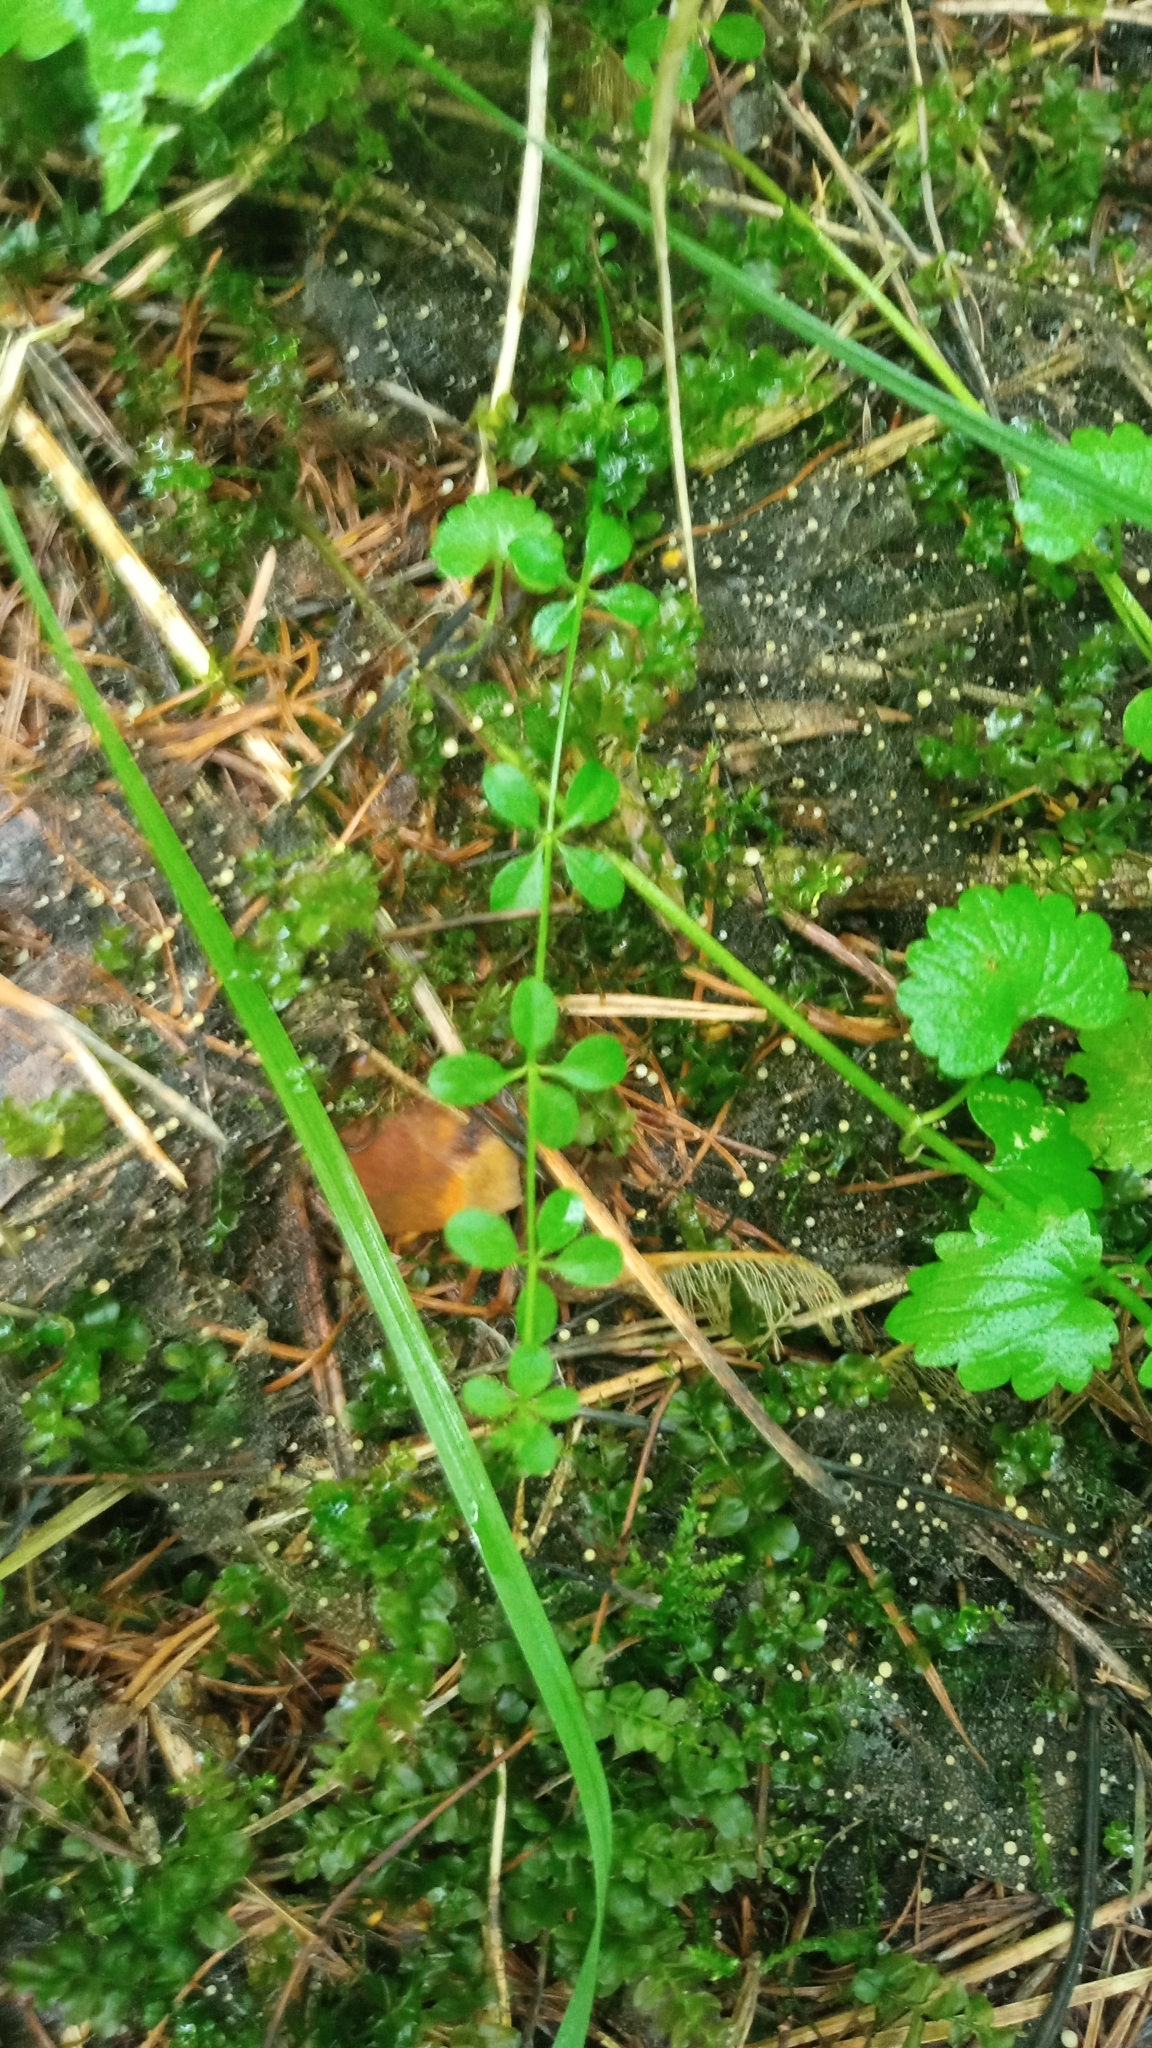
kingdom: Plantae
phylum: Tracheophyta
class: Magnoliopsida
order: Gentianales
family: Rubiaceae
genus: Galium
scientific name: Galium trifidum
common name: Small bedstraw
